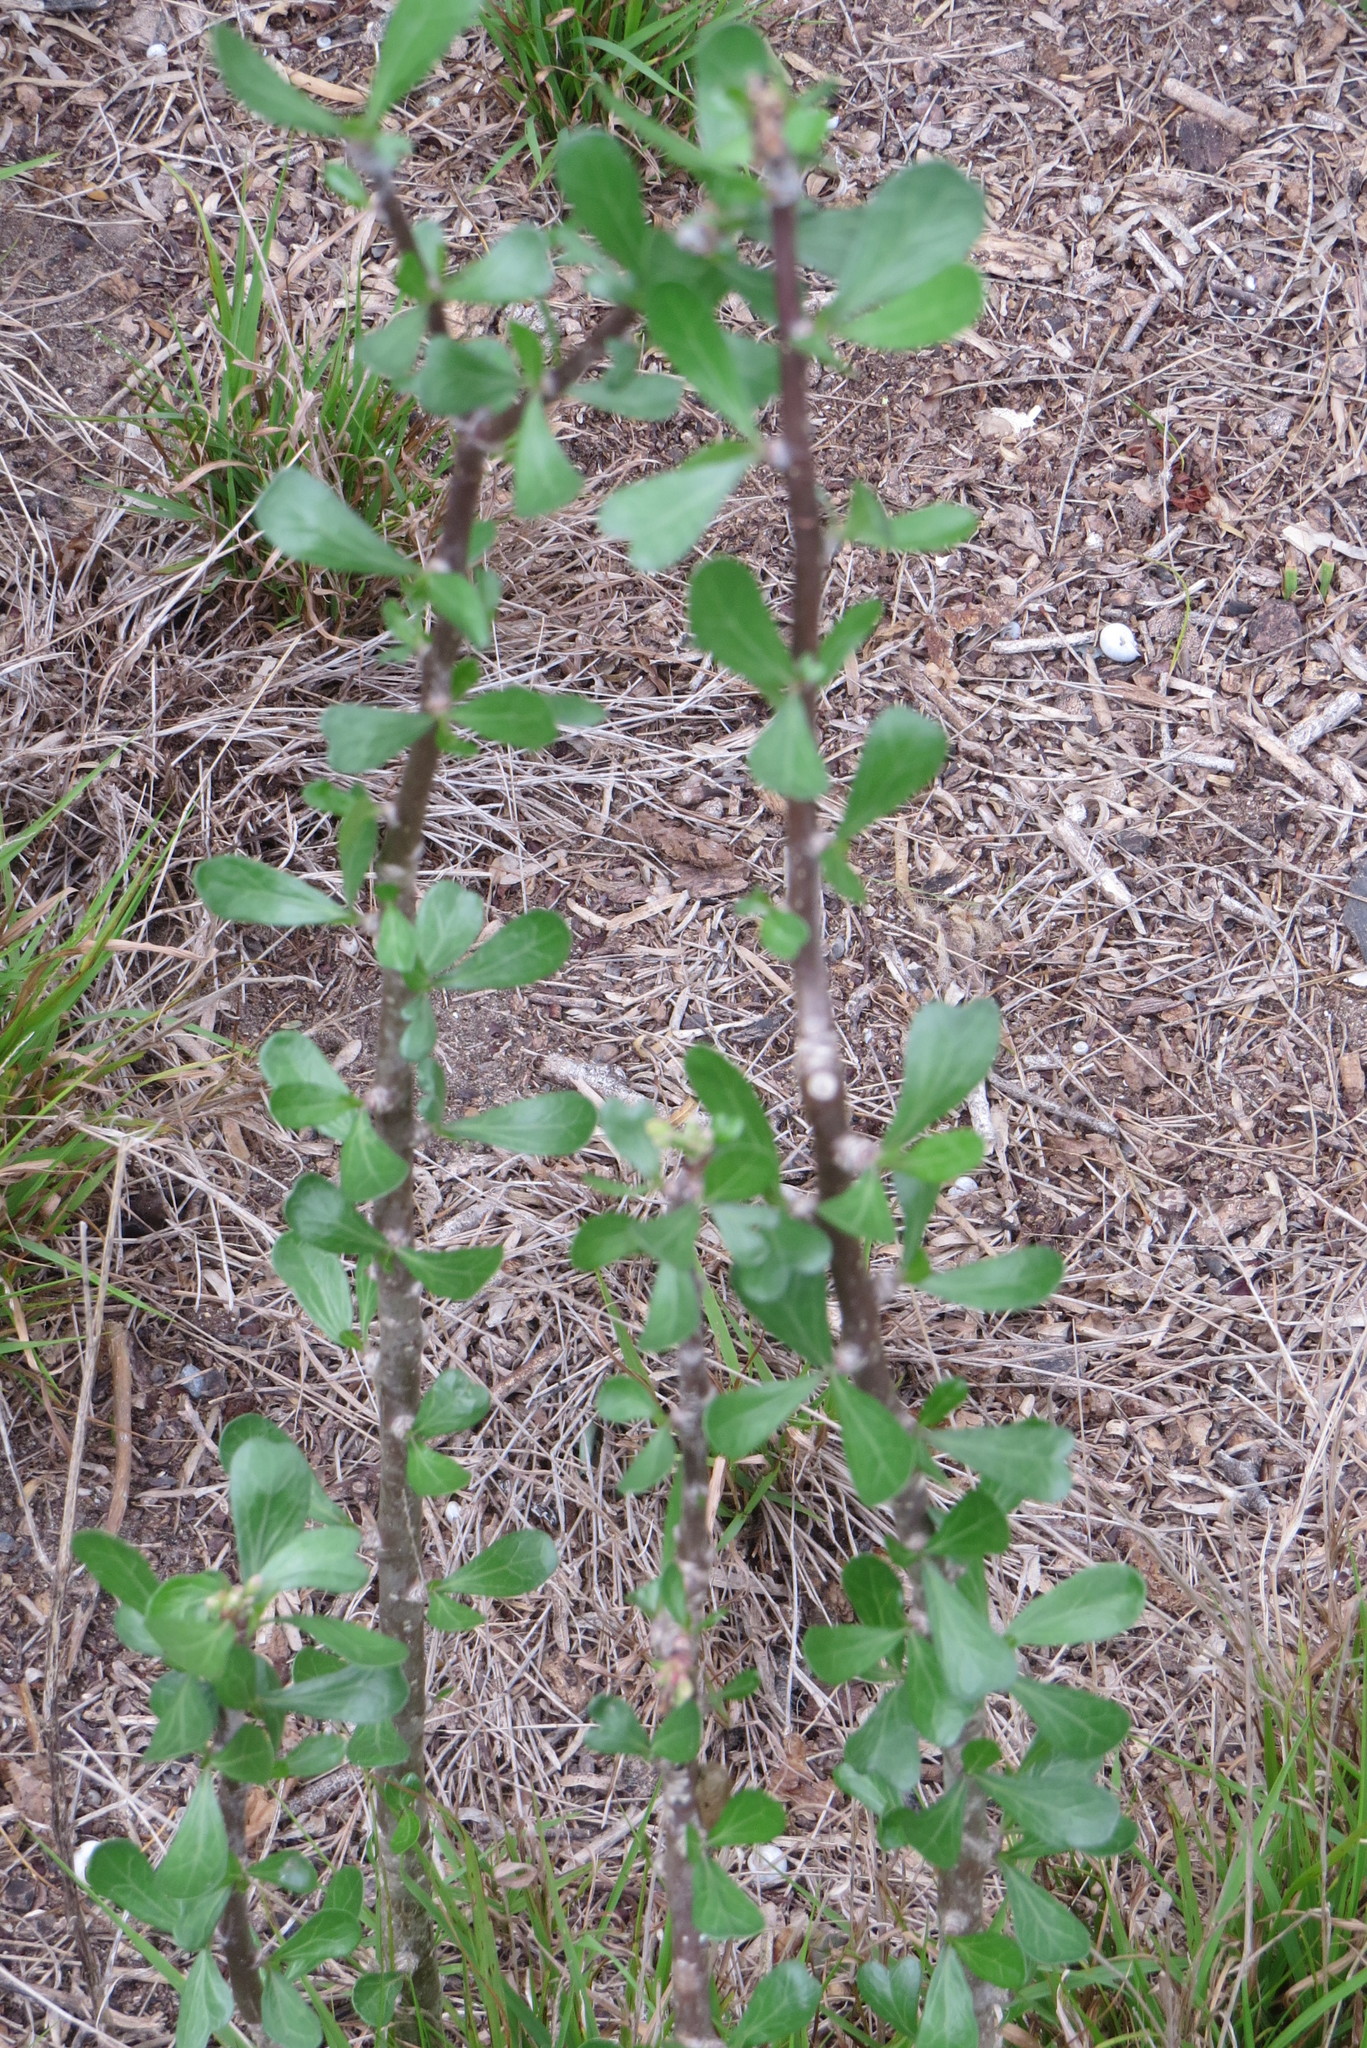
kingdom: Plantae
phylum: Tracheophyta
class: Magnoliopsida
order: Malpighiales
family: Euphorbiaceae
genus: Jatropha
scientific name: Jatropha dioica
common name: Leatherstem
